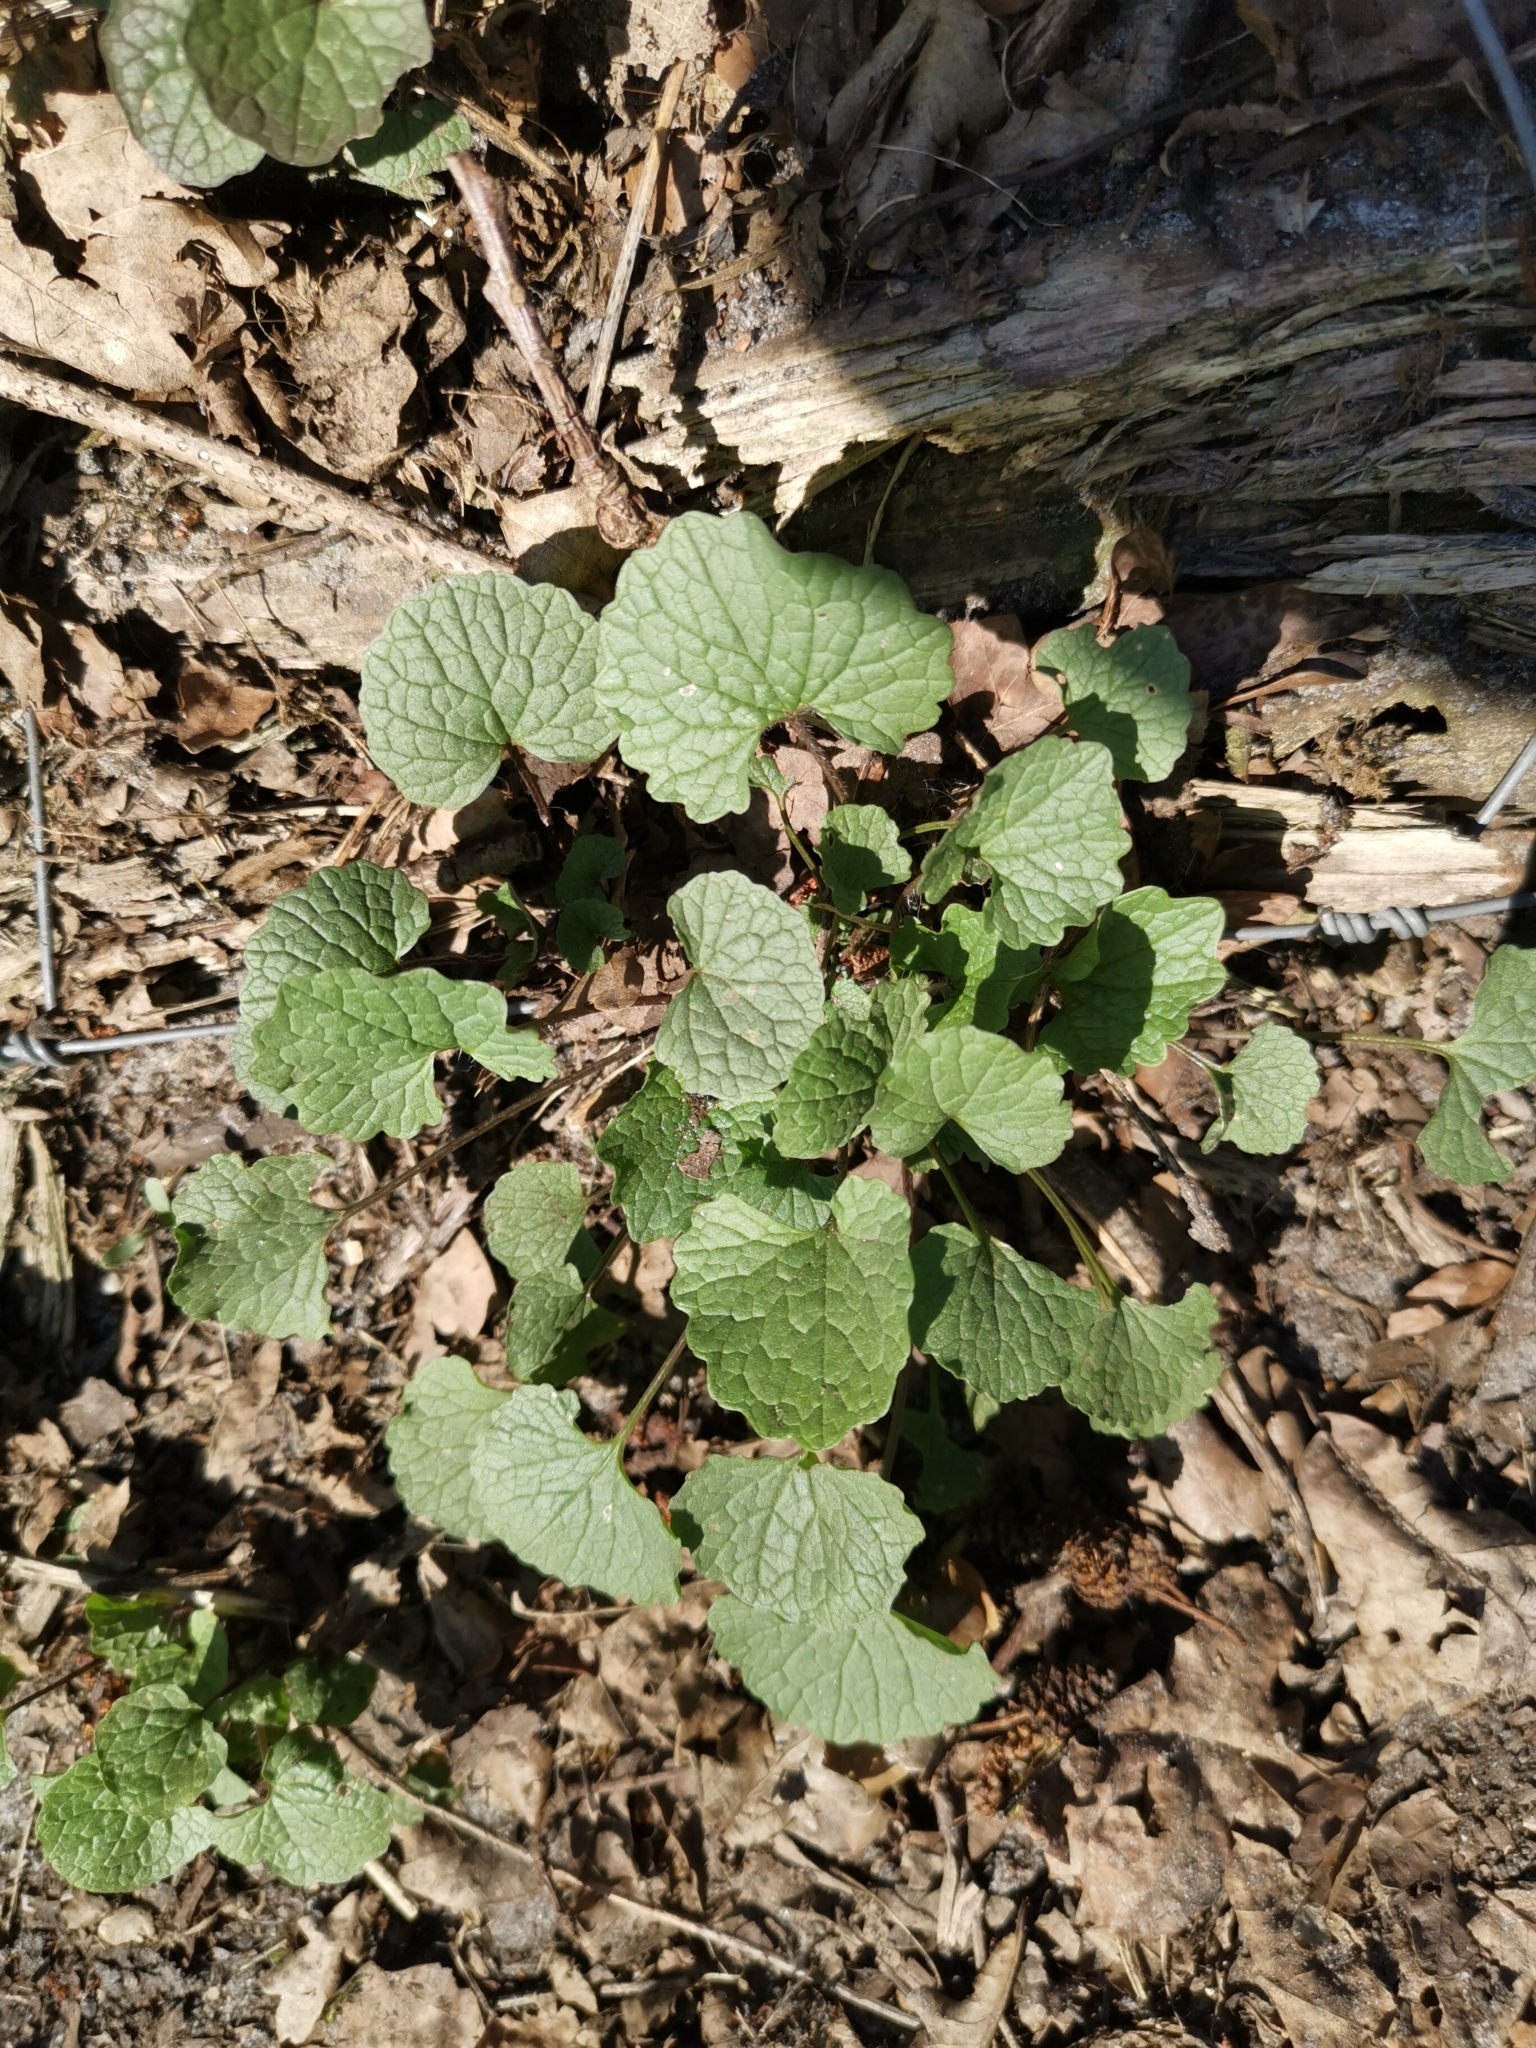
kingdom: Plantae
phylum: Tracheophyta
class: Magnoliopsida
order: Brassicales
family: Brassicaceae
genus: Alliaria
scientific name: Alliaria petiolata
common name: Garlic mustard
